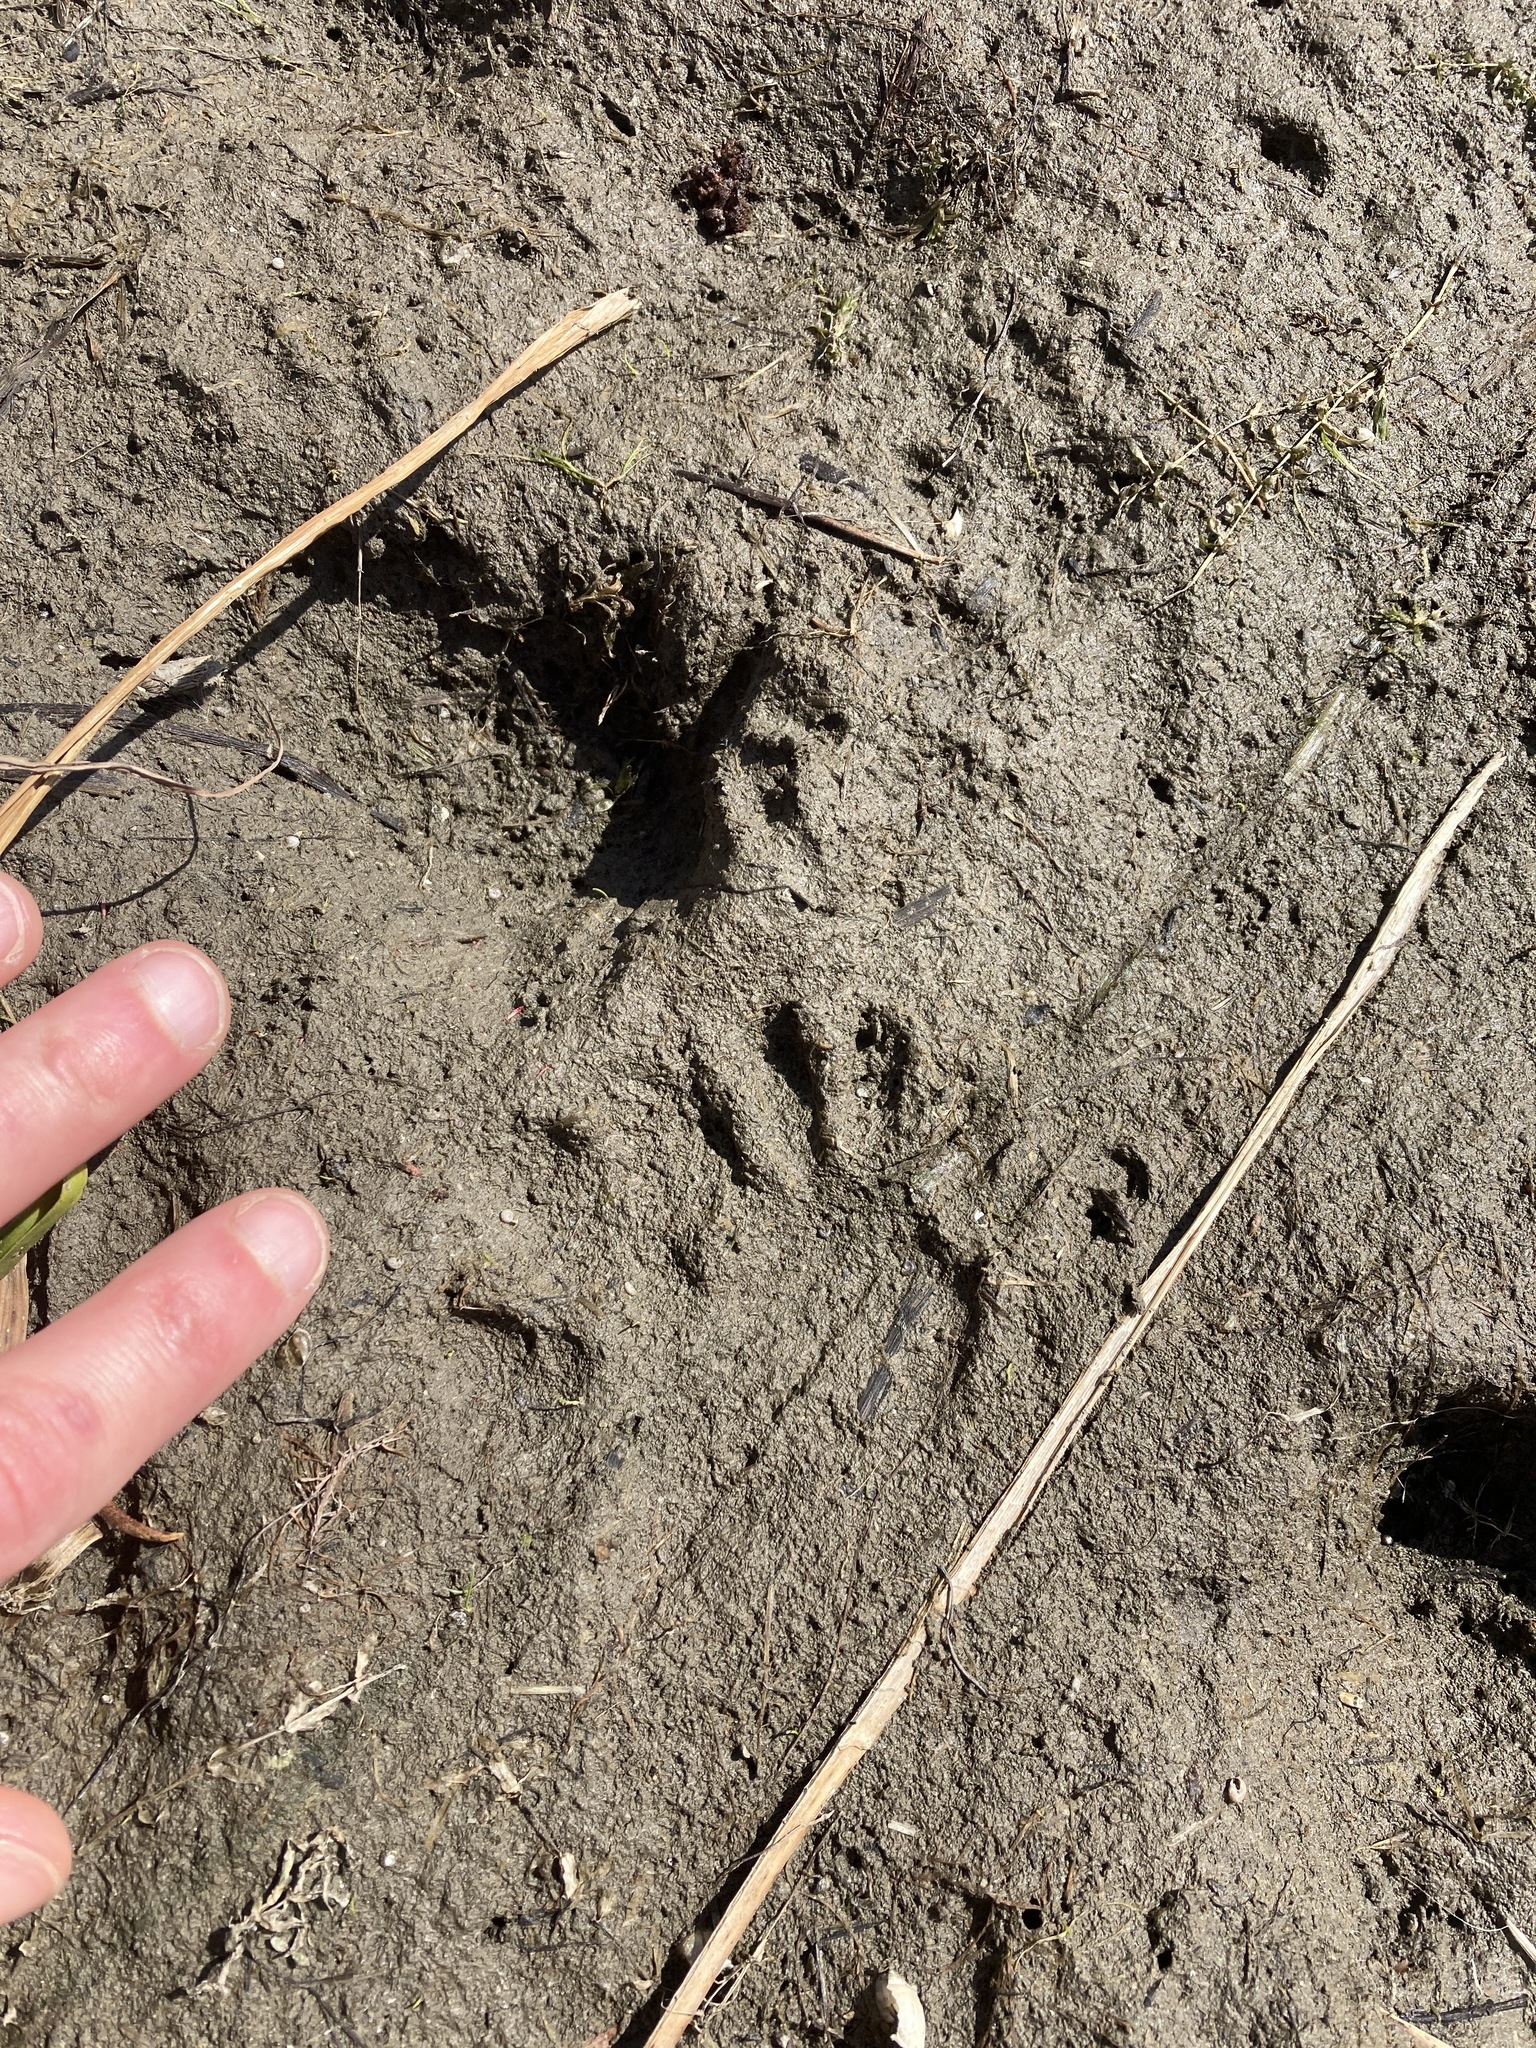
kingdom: Animalia
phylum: Chordata
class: Mammalia
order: Carnivora
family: Procyonidae
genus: Procyon
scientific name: Procyon lotor
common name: Raccoon
